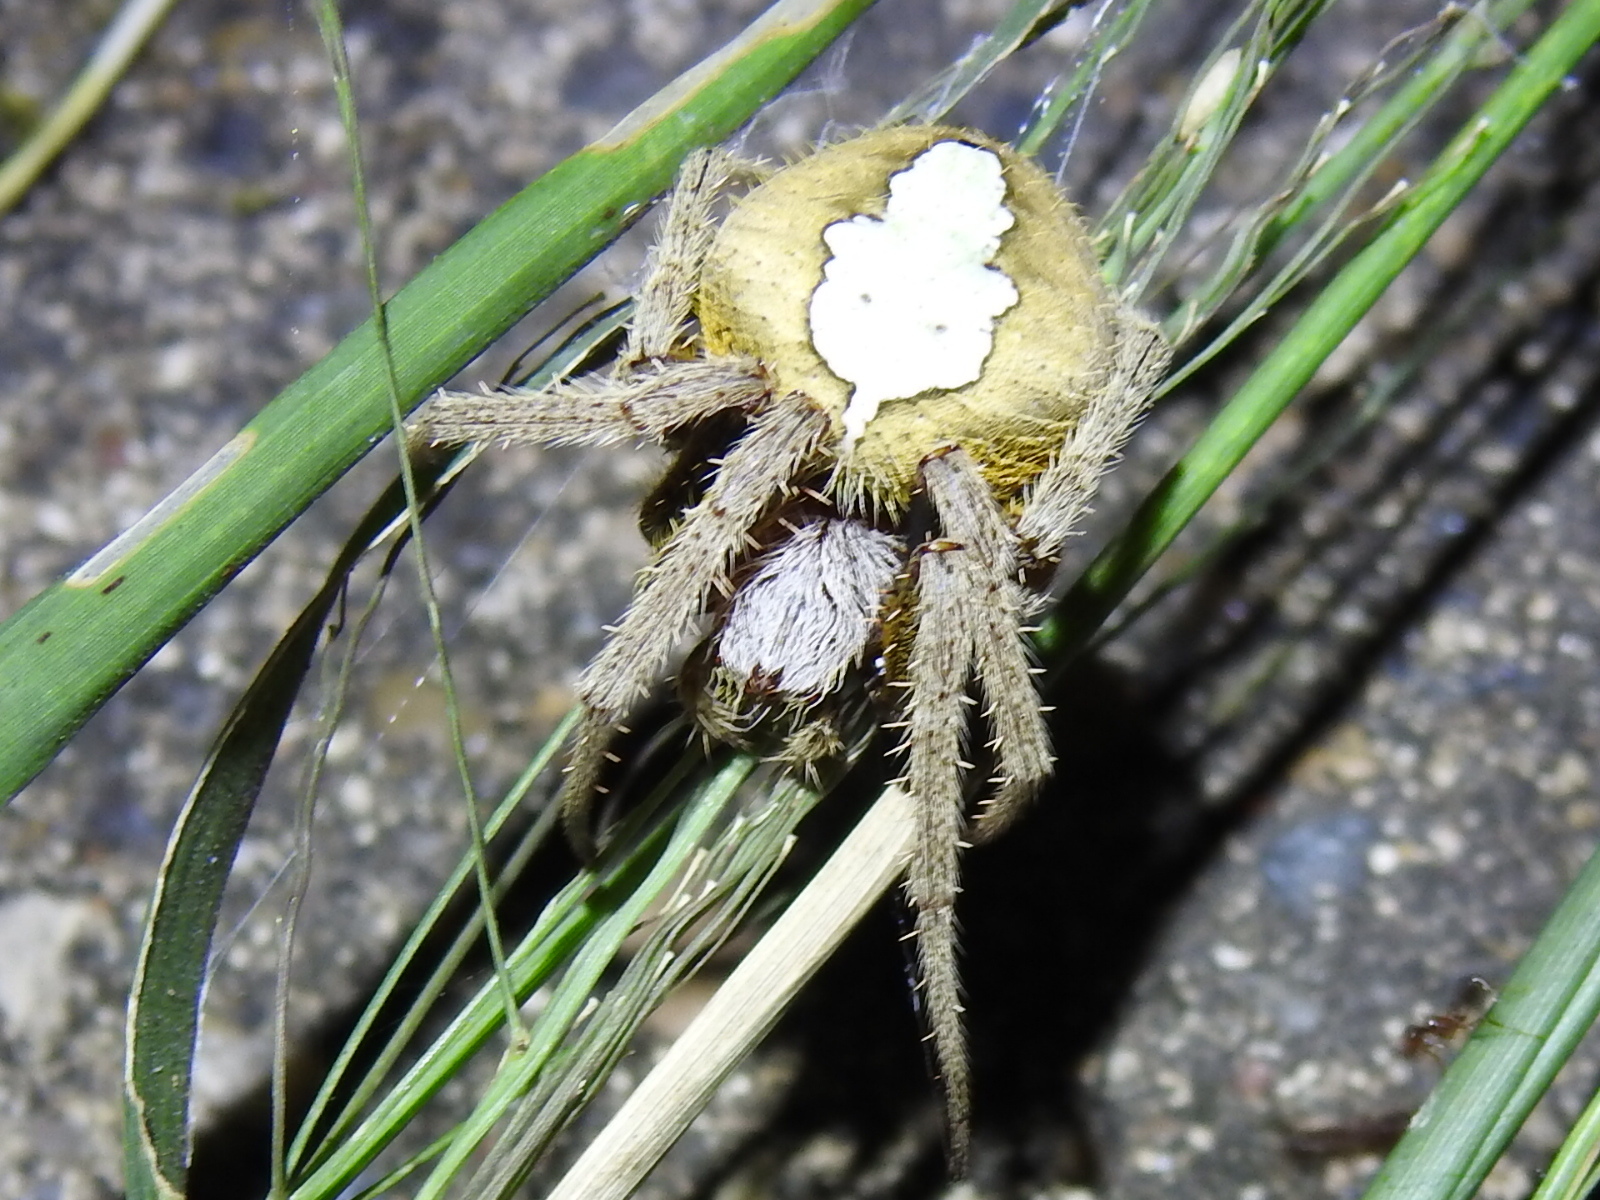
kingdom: Animalia
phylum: Arthropoda
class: Arachnida
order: Araneae
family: Araneidae
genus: Eriophora
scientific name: Eriophora ravilla
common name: Orb weavers
